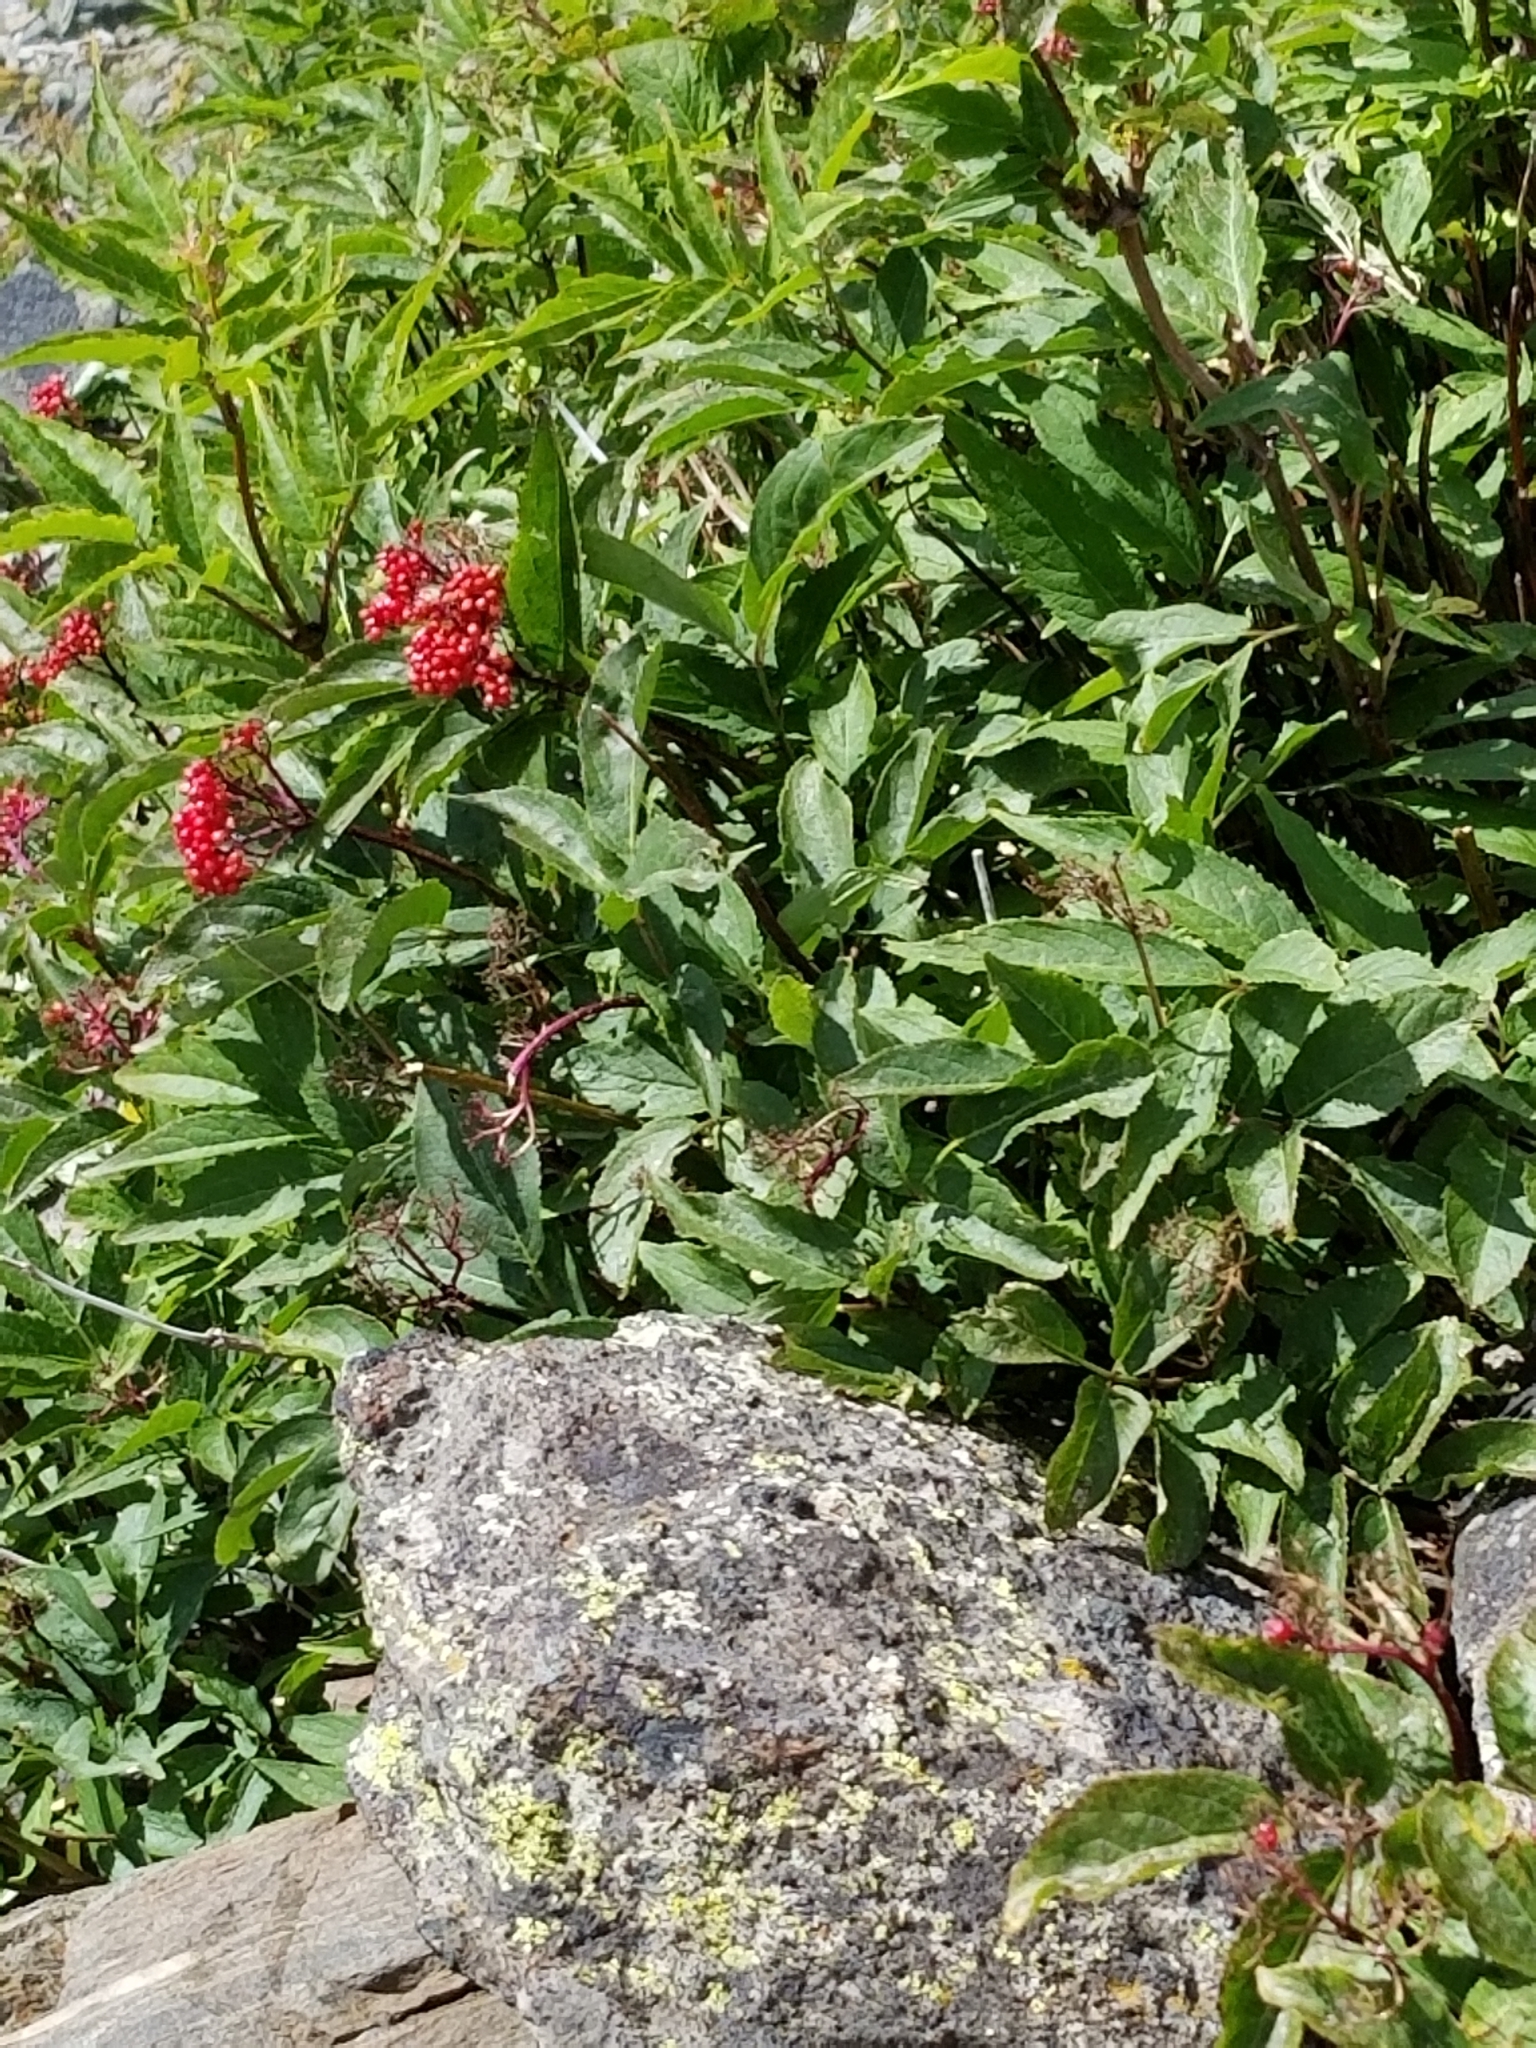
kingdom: Plantae
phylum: Tracheophyta
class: Magnoliopsida
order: Dipsacales
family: Viburnaceae
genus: Sambucus
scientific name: Sambucus racemosa
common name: Red-berried elder
